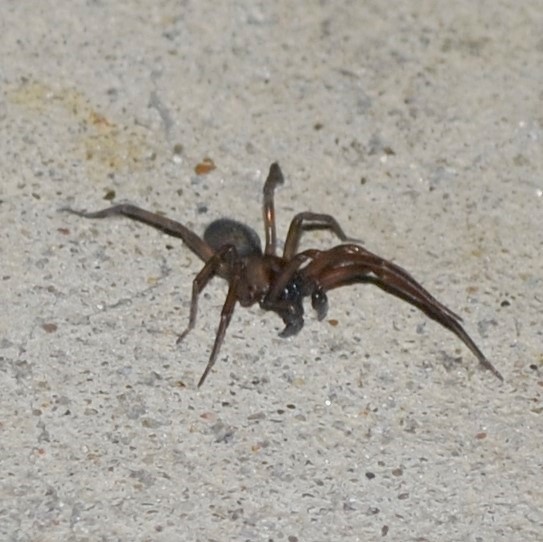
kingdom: Animalia
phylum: Arthropoda
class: Arachnida
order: Araneae
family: Desidae
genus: Metaltella
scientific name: Metaltella simoni
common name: Cribellate spider
